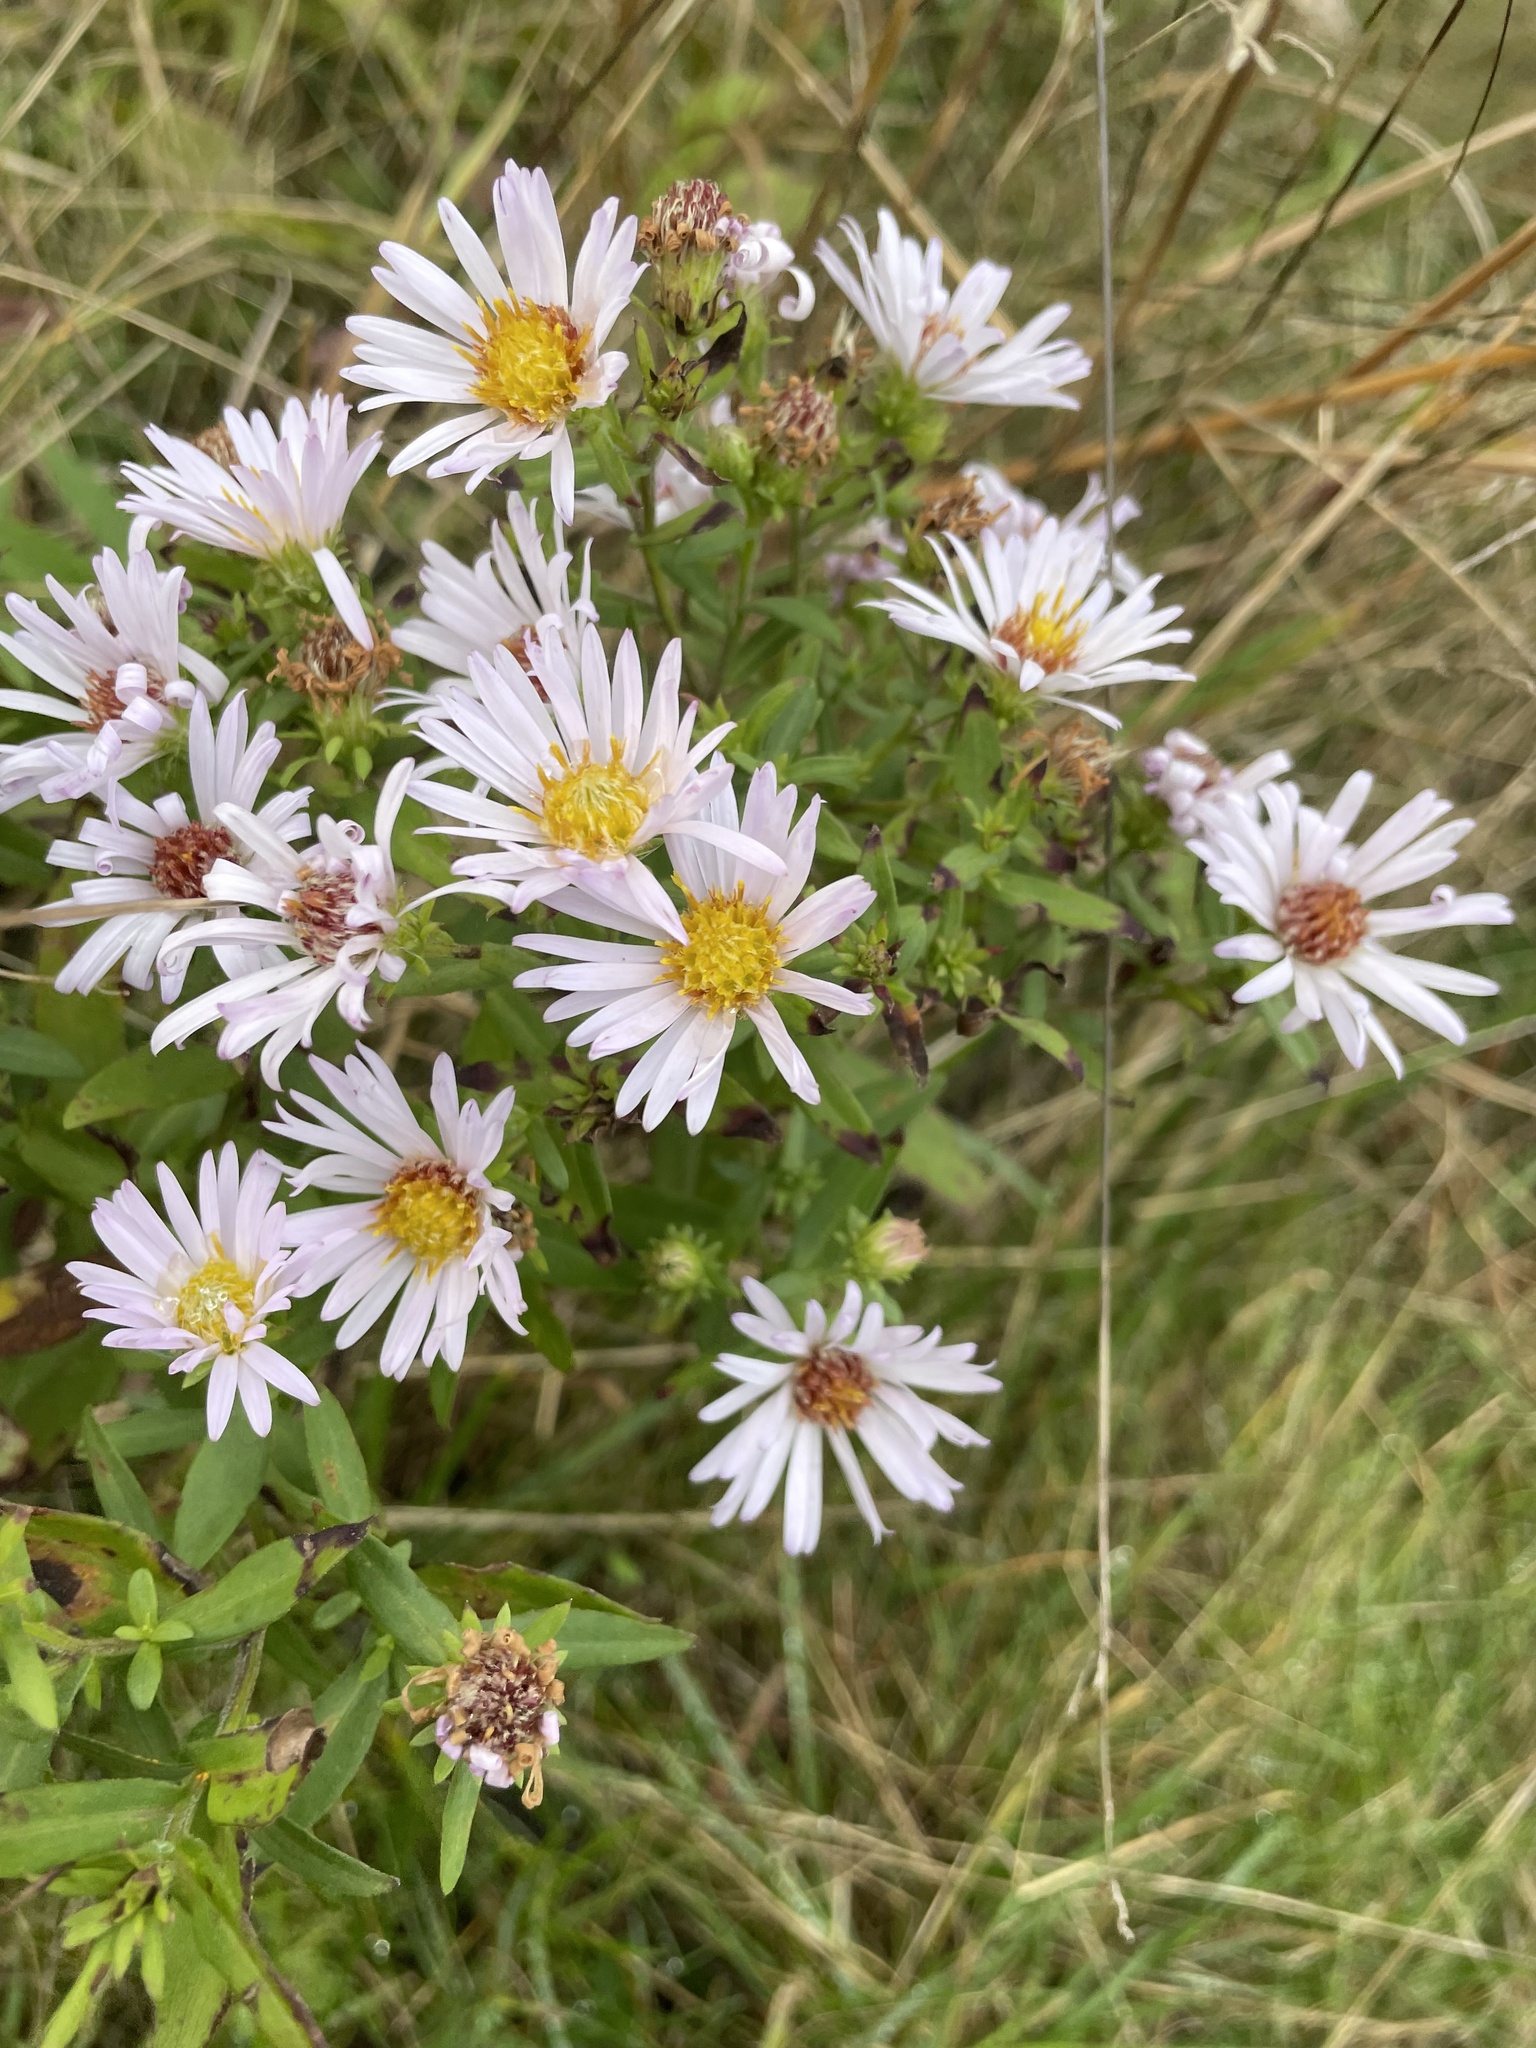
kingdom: Plantae
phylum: Tracheophyta
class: Magnoliopsida
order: Asterales
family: Asteraceae
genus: Symphyotrichum
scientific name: Symphyotrichum novi-belgii
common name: Michaelmas daisy
